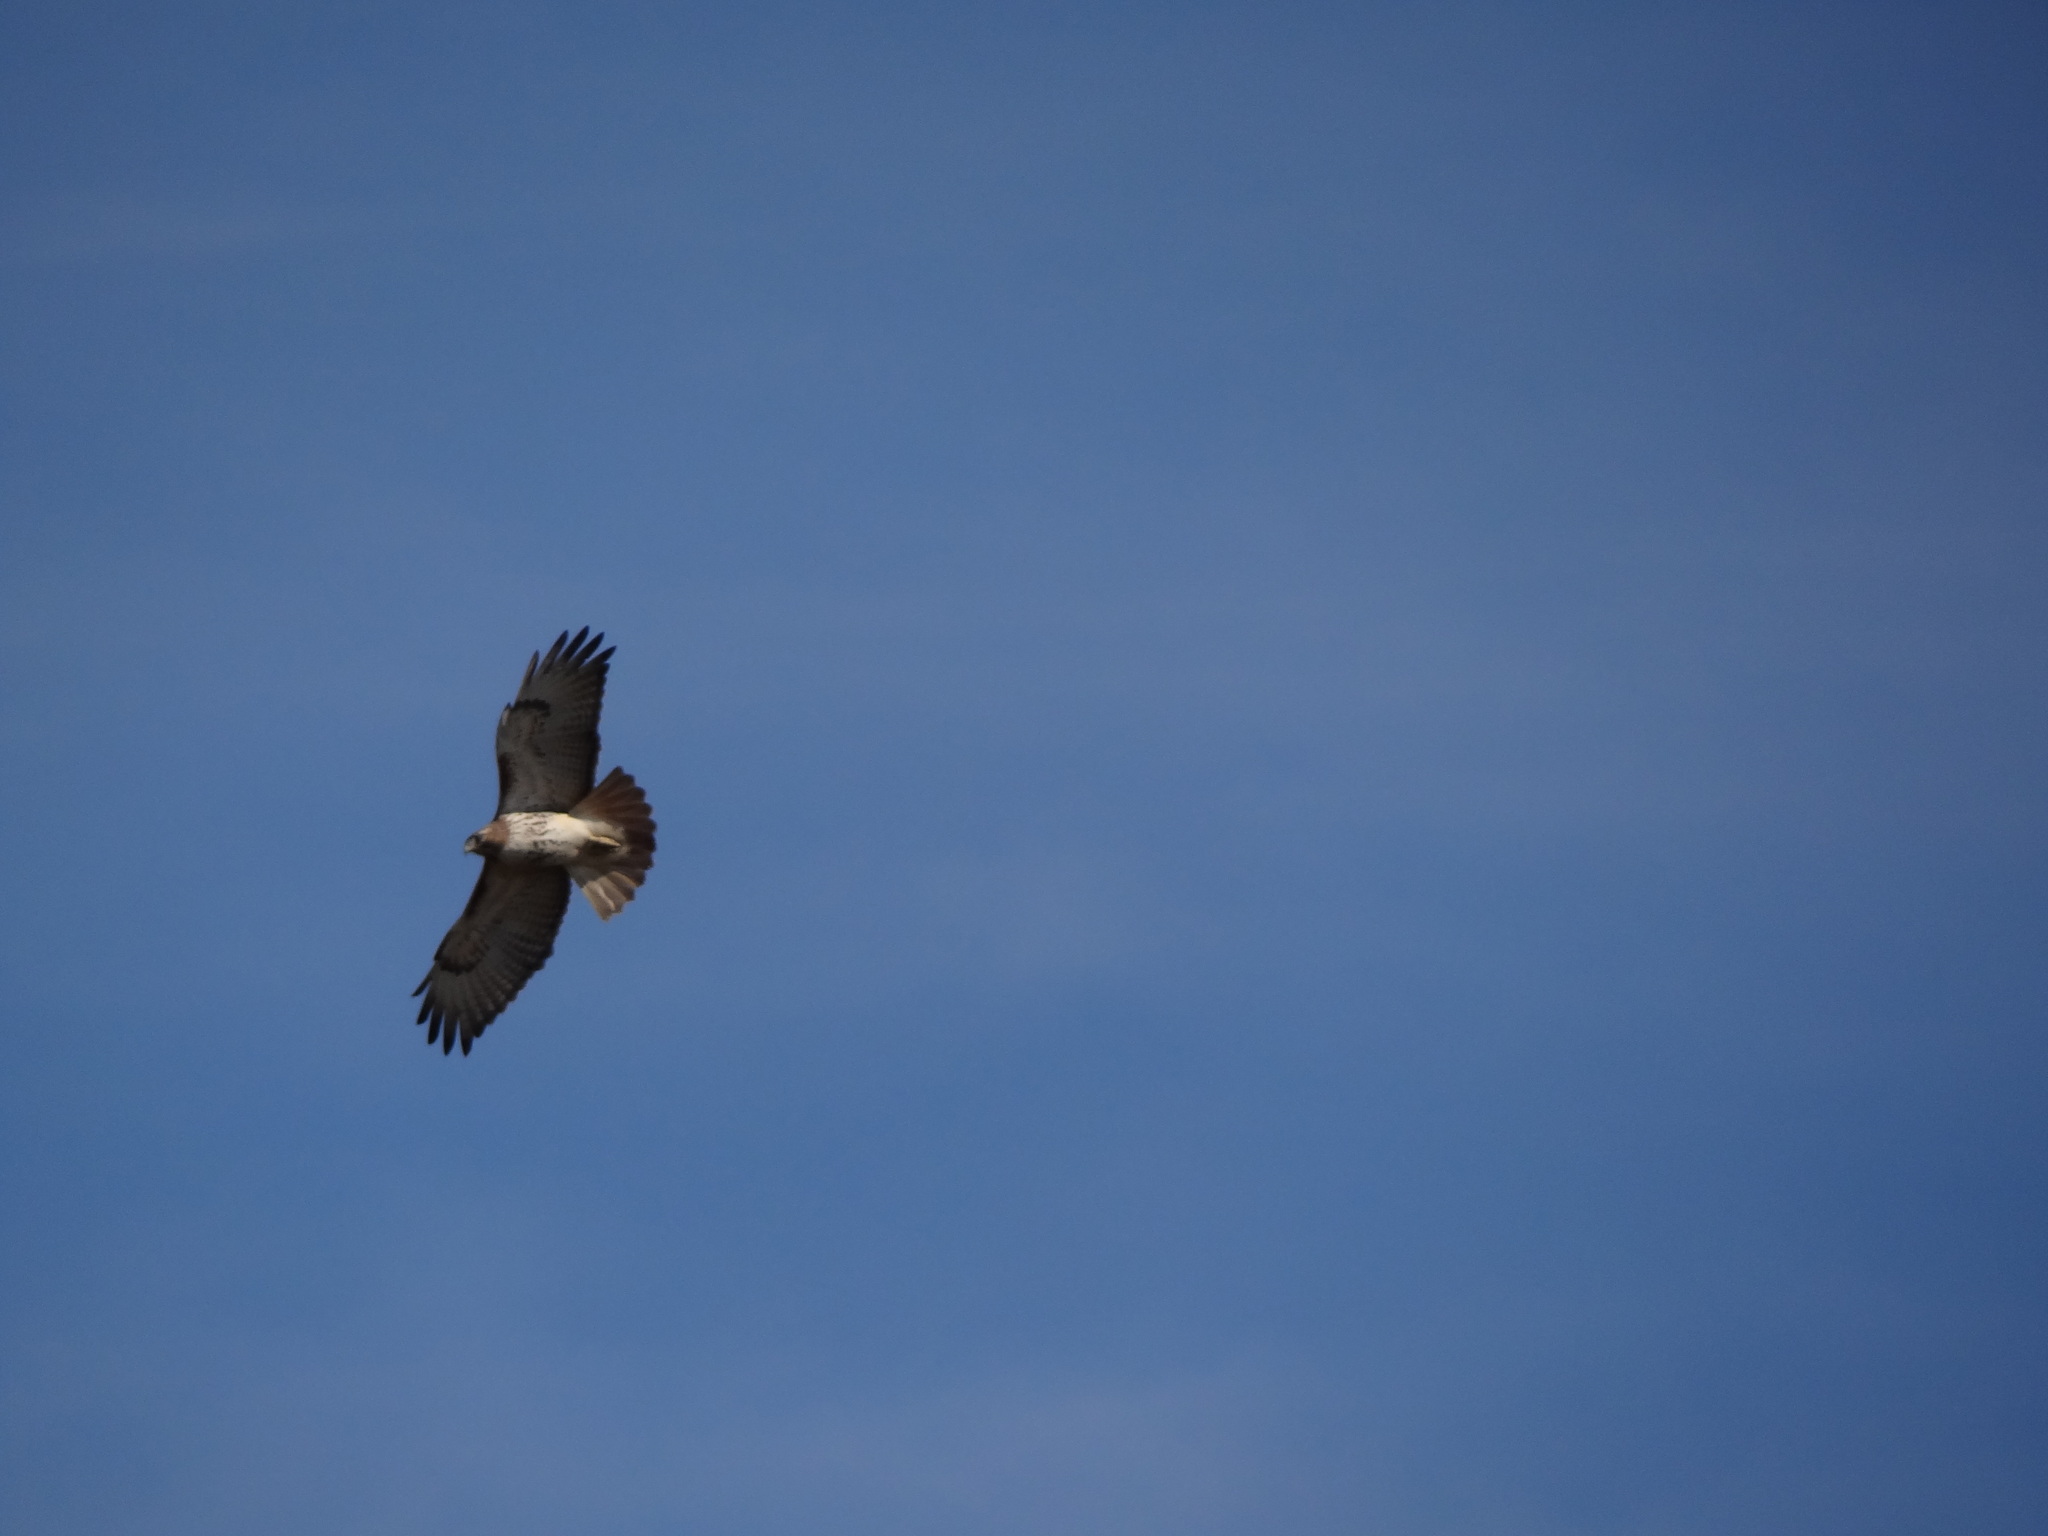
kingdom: Animalia
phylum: Chordata
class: Aves
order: Accipitriformes
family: Accipitridae
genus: Buteo
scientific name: Buteo jamaicensis
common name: Red-tailed hawk
